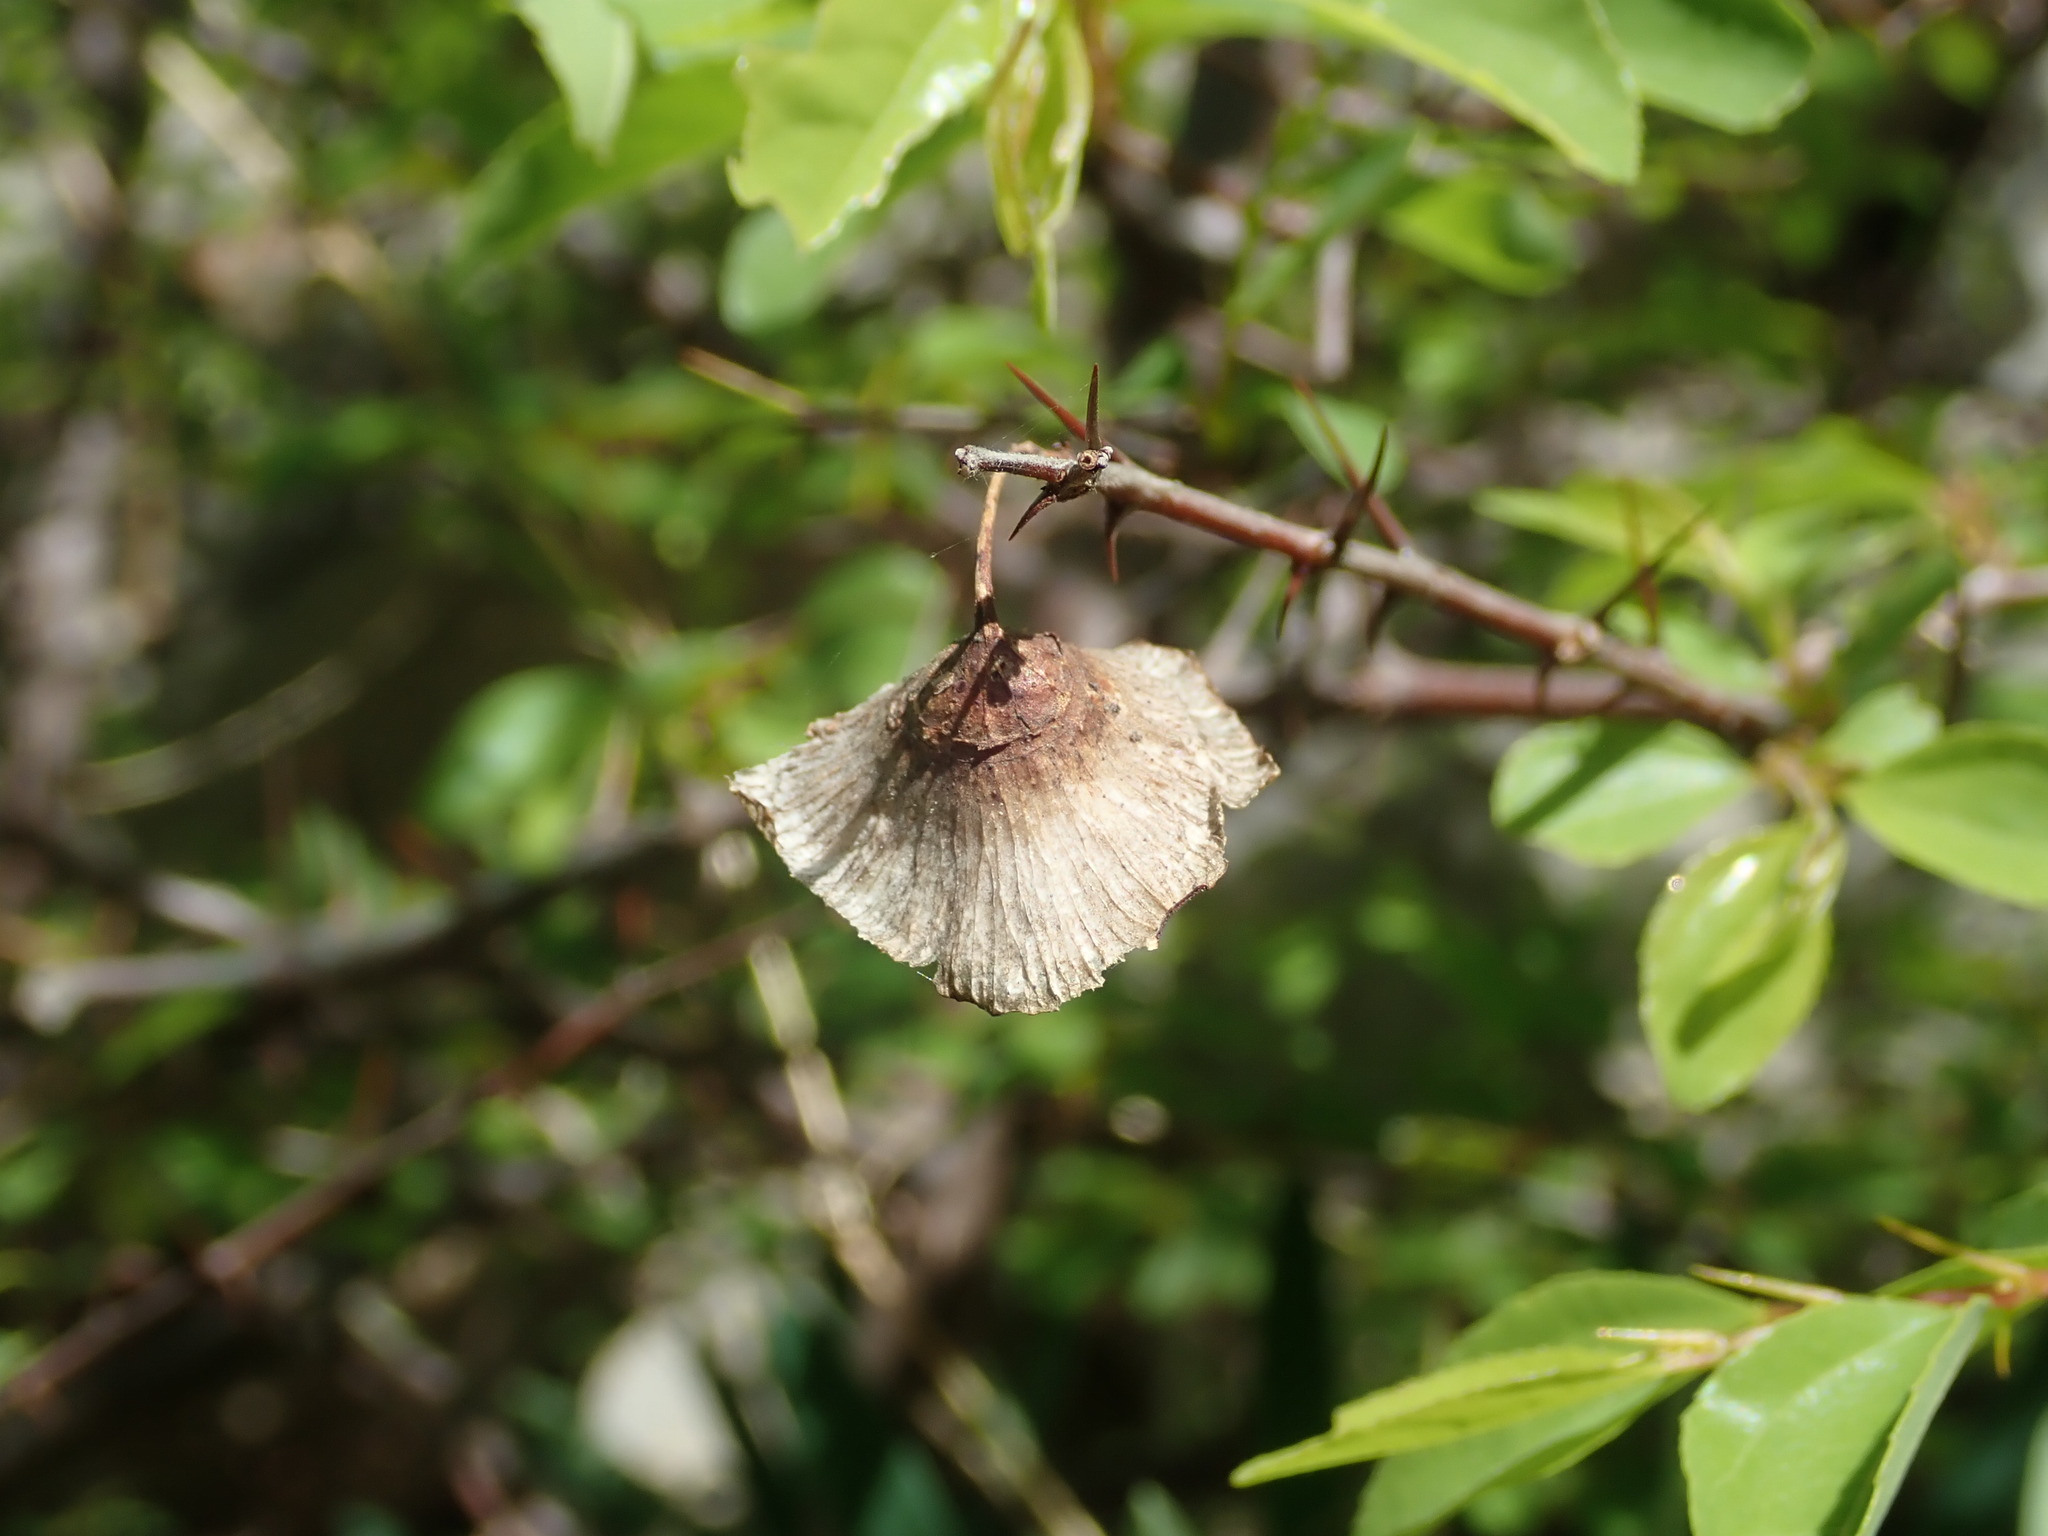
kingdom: Plantae
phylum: Tracheophyta
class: Magnoliopsida
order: Rosales
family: Rhamnaceae
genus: Paliurus
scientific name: Paliurus spina-christi
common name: Jeruselem thorn
